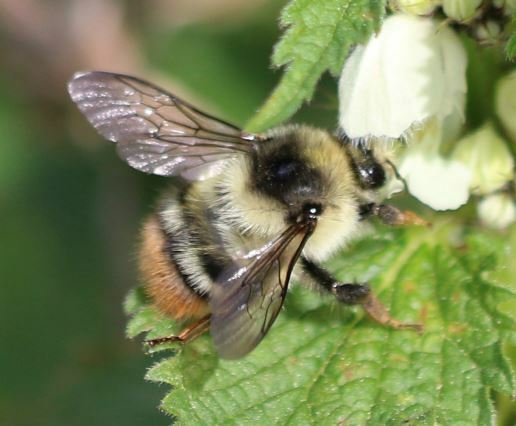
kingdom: Animalia
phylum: Arthropoda
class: Insecta
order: Hymenoptera
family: Apidae
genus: Bombus
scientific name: Bombus sylvarum
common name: Shrill carder bee
